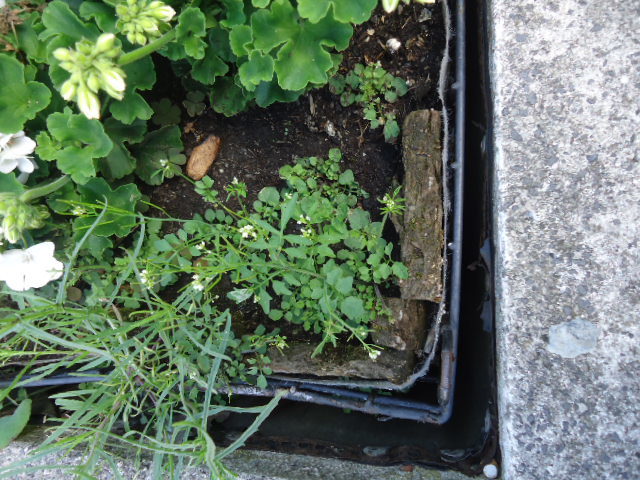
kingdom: Plantae
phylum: Tracheophyta
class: Magnoliopsida
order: Brassicales
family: Brassicaceae
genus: Cardamine
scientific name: Cardamine hirsuta
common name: Hairy bittercress
